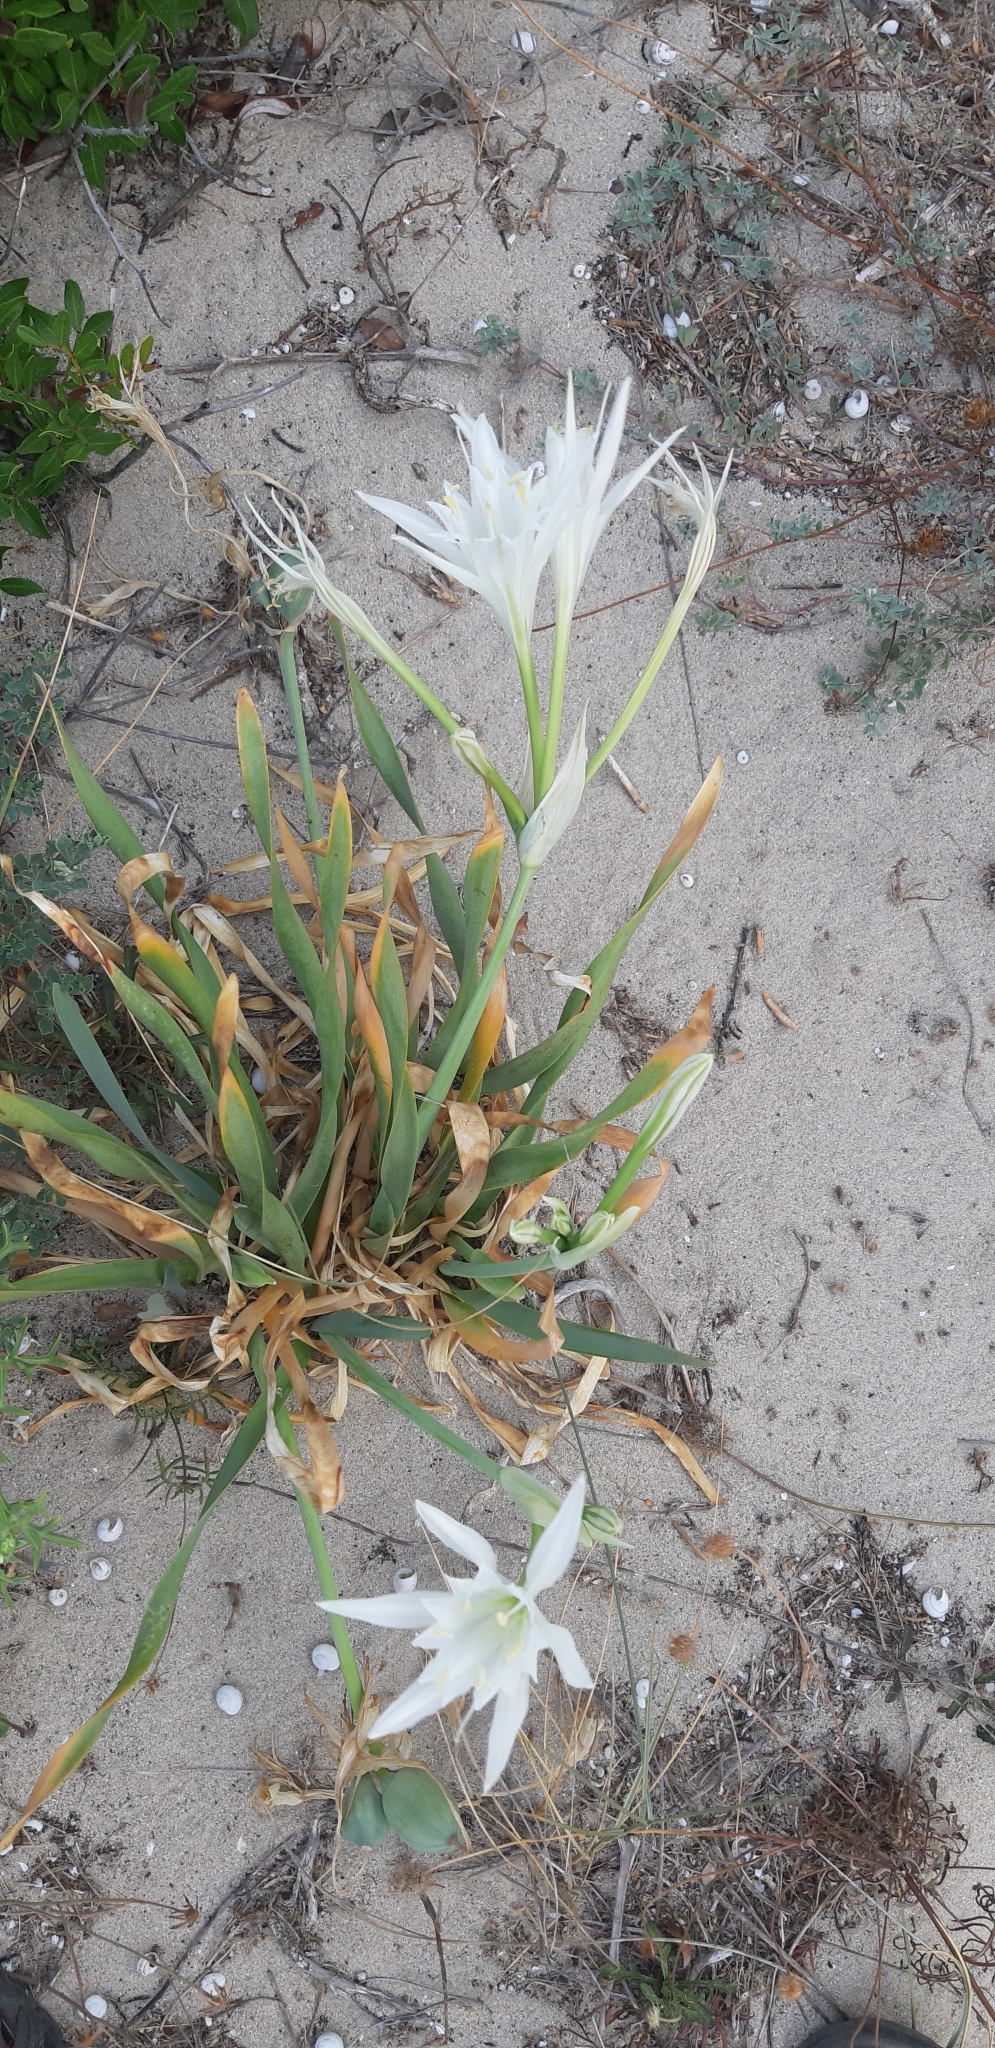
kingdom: Plantae
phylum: Tracheophyta
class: Liliopsida
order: Asparagales
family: Amaryllidaceae
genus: Pancratium
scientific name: Pancratium maritimum
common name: Sea-daffodil
